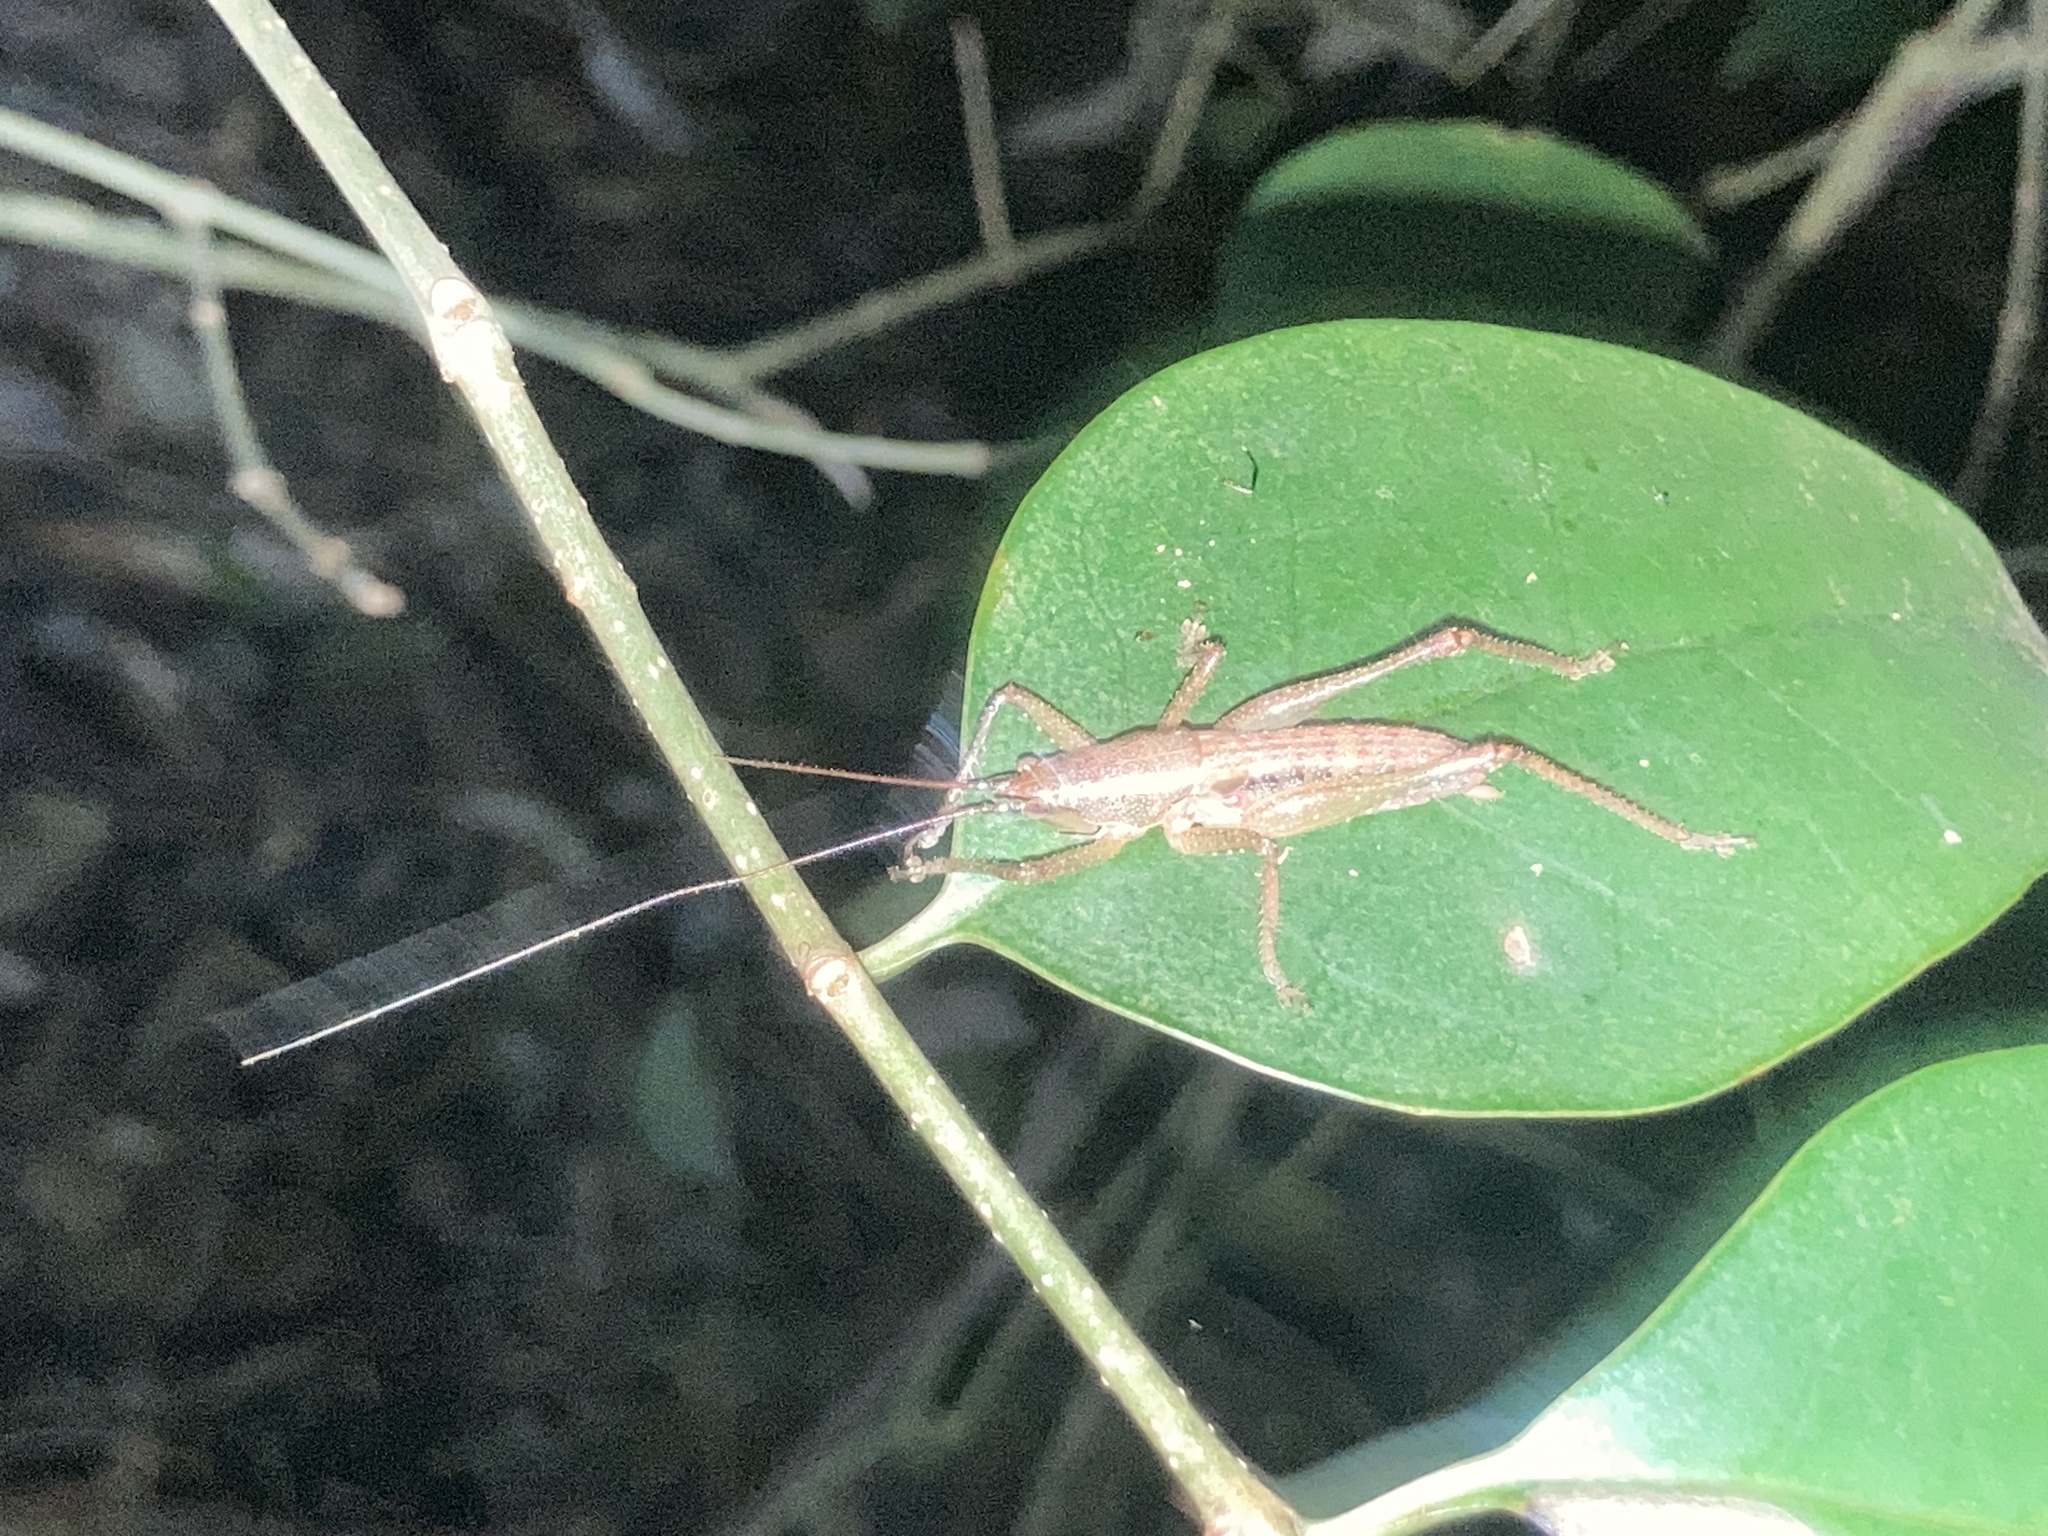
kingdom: Animalia
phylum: Arthropoda
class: Insecta
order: Orthoptera
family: Tettigoniidae
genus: Austrosalomona
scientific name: Austrosalomona falcata
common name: Olive-green coastal katydid
